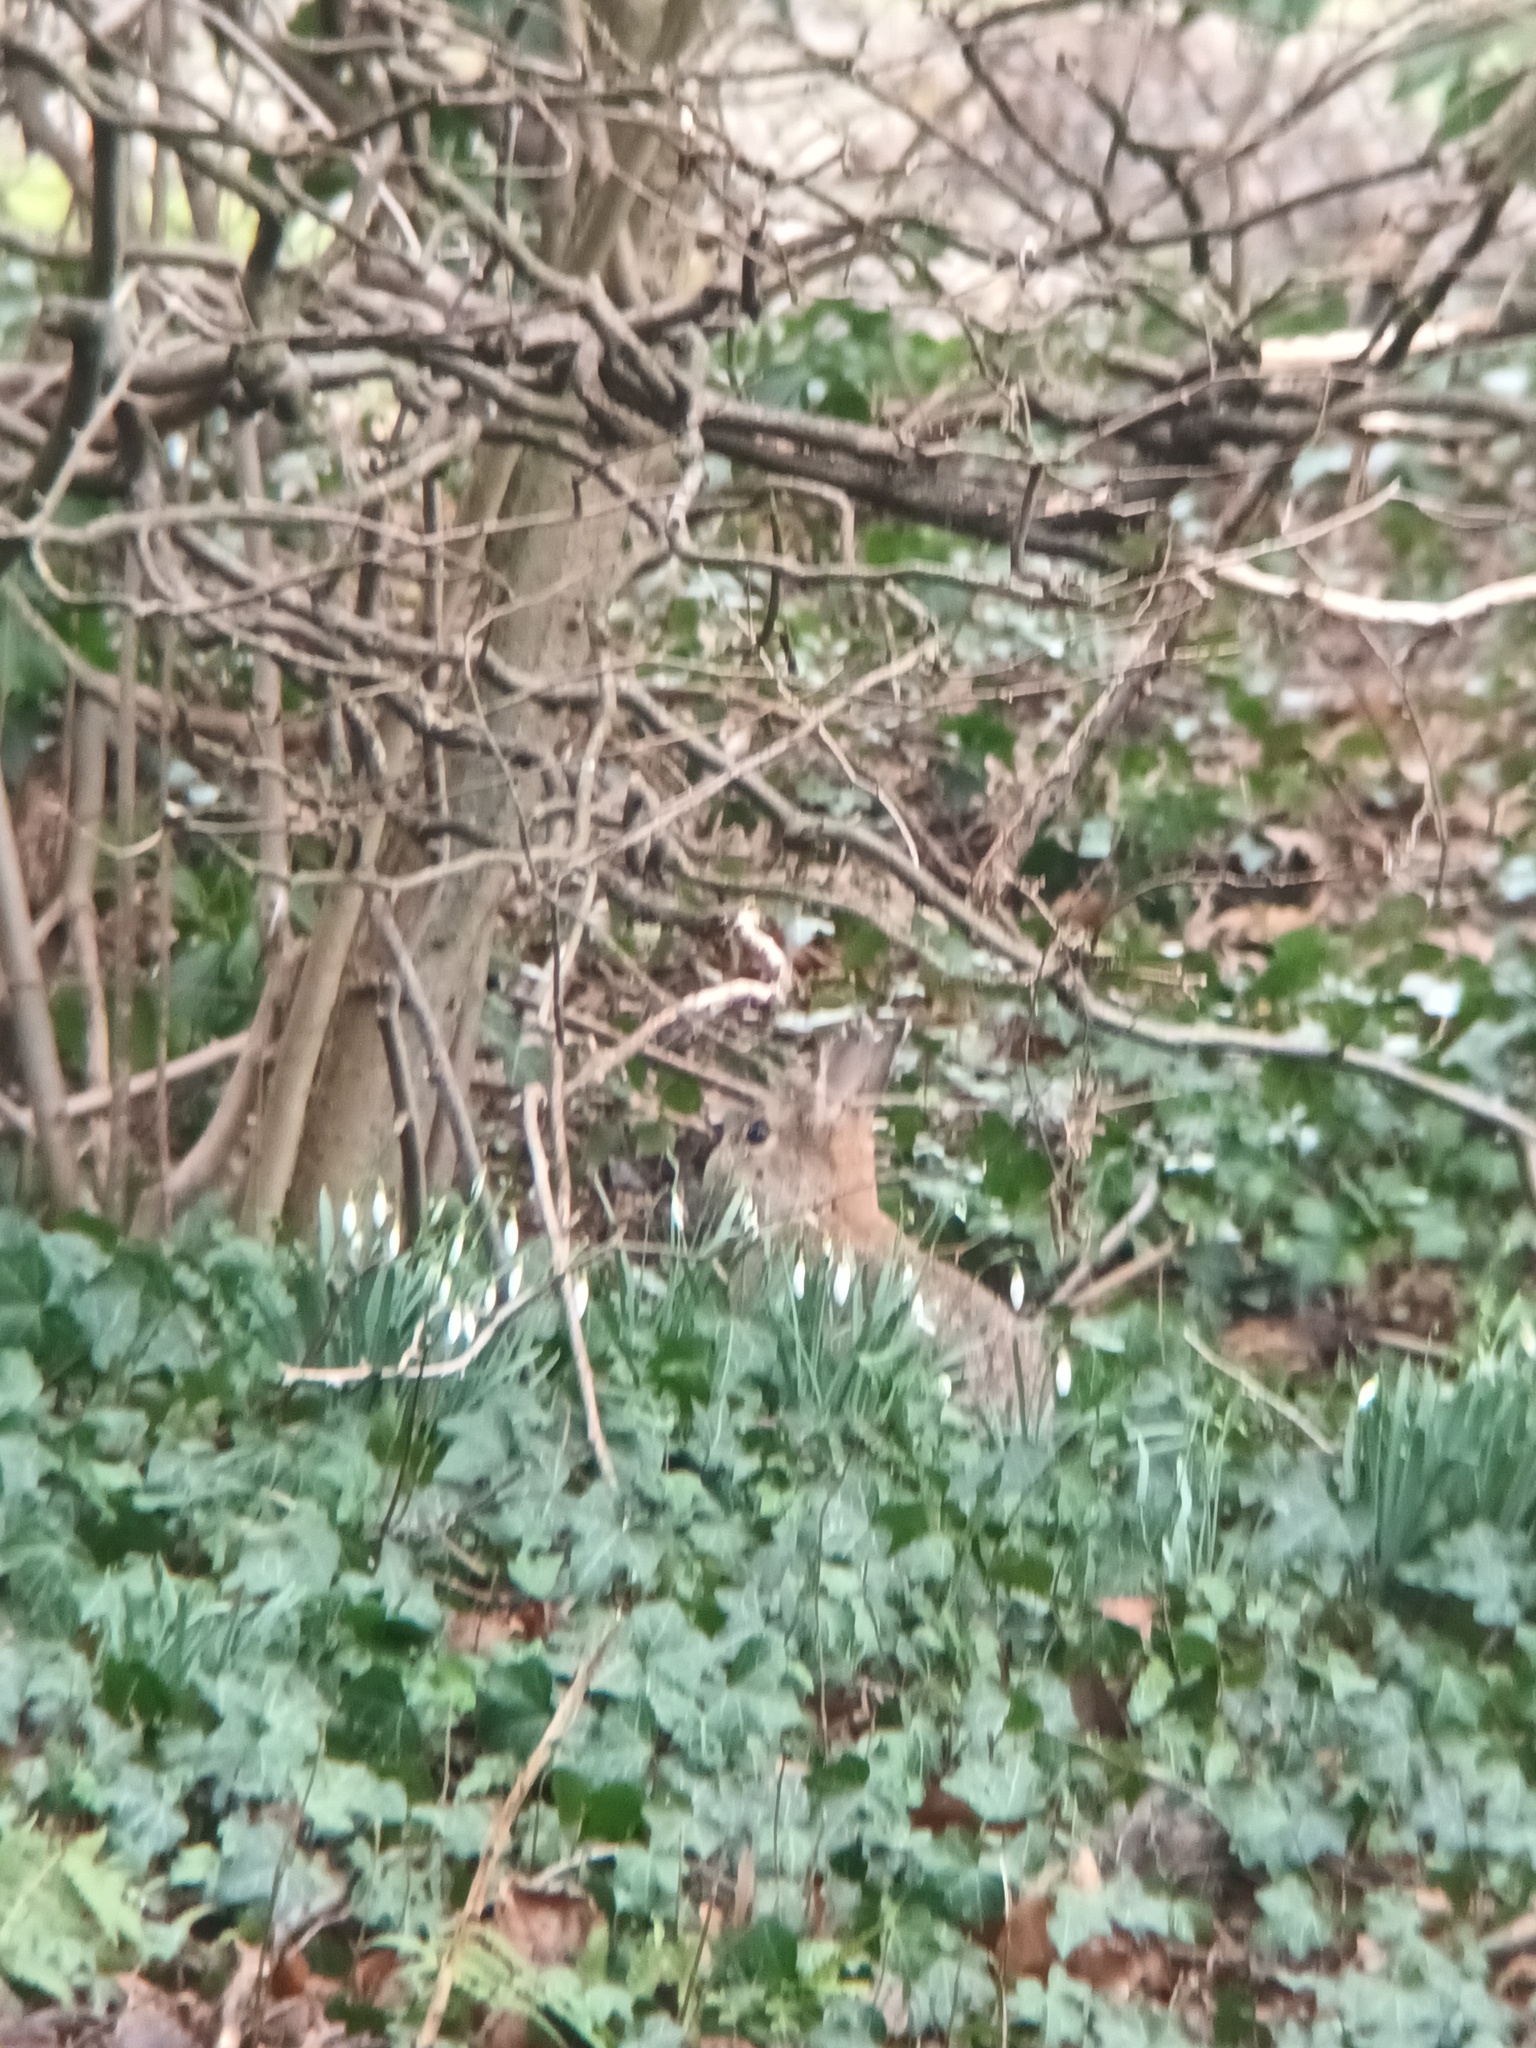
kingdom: Animalia
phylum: Chordata
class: Mammalia
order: Lagomorpha
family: Leporidae
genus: Oryctolagus
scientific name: Oryctolagus cuniculus
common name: European rabbit
